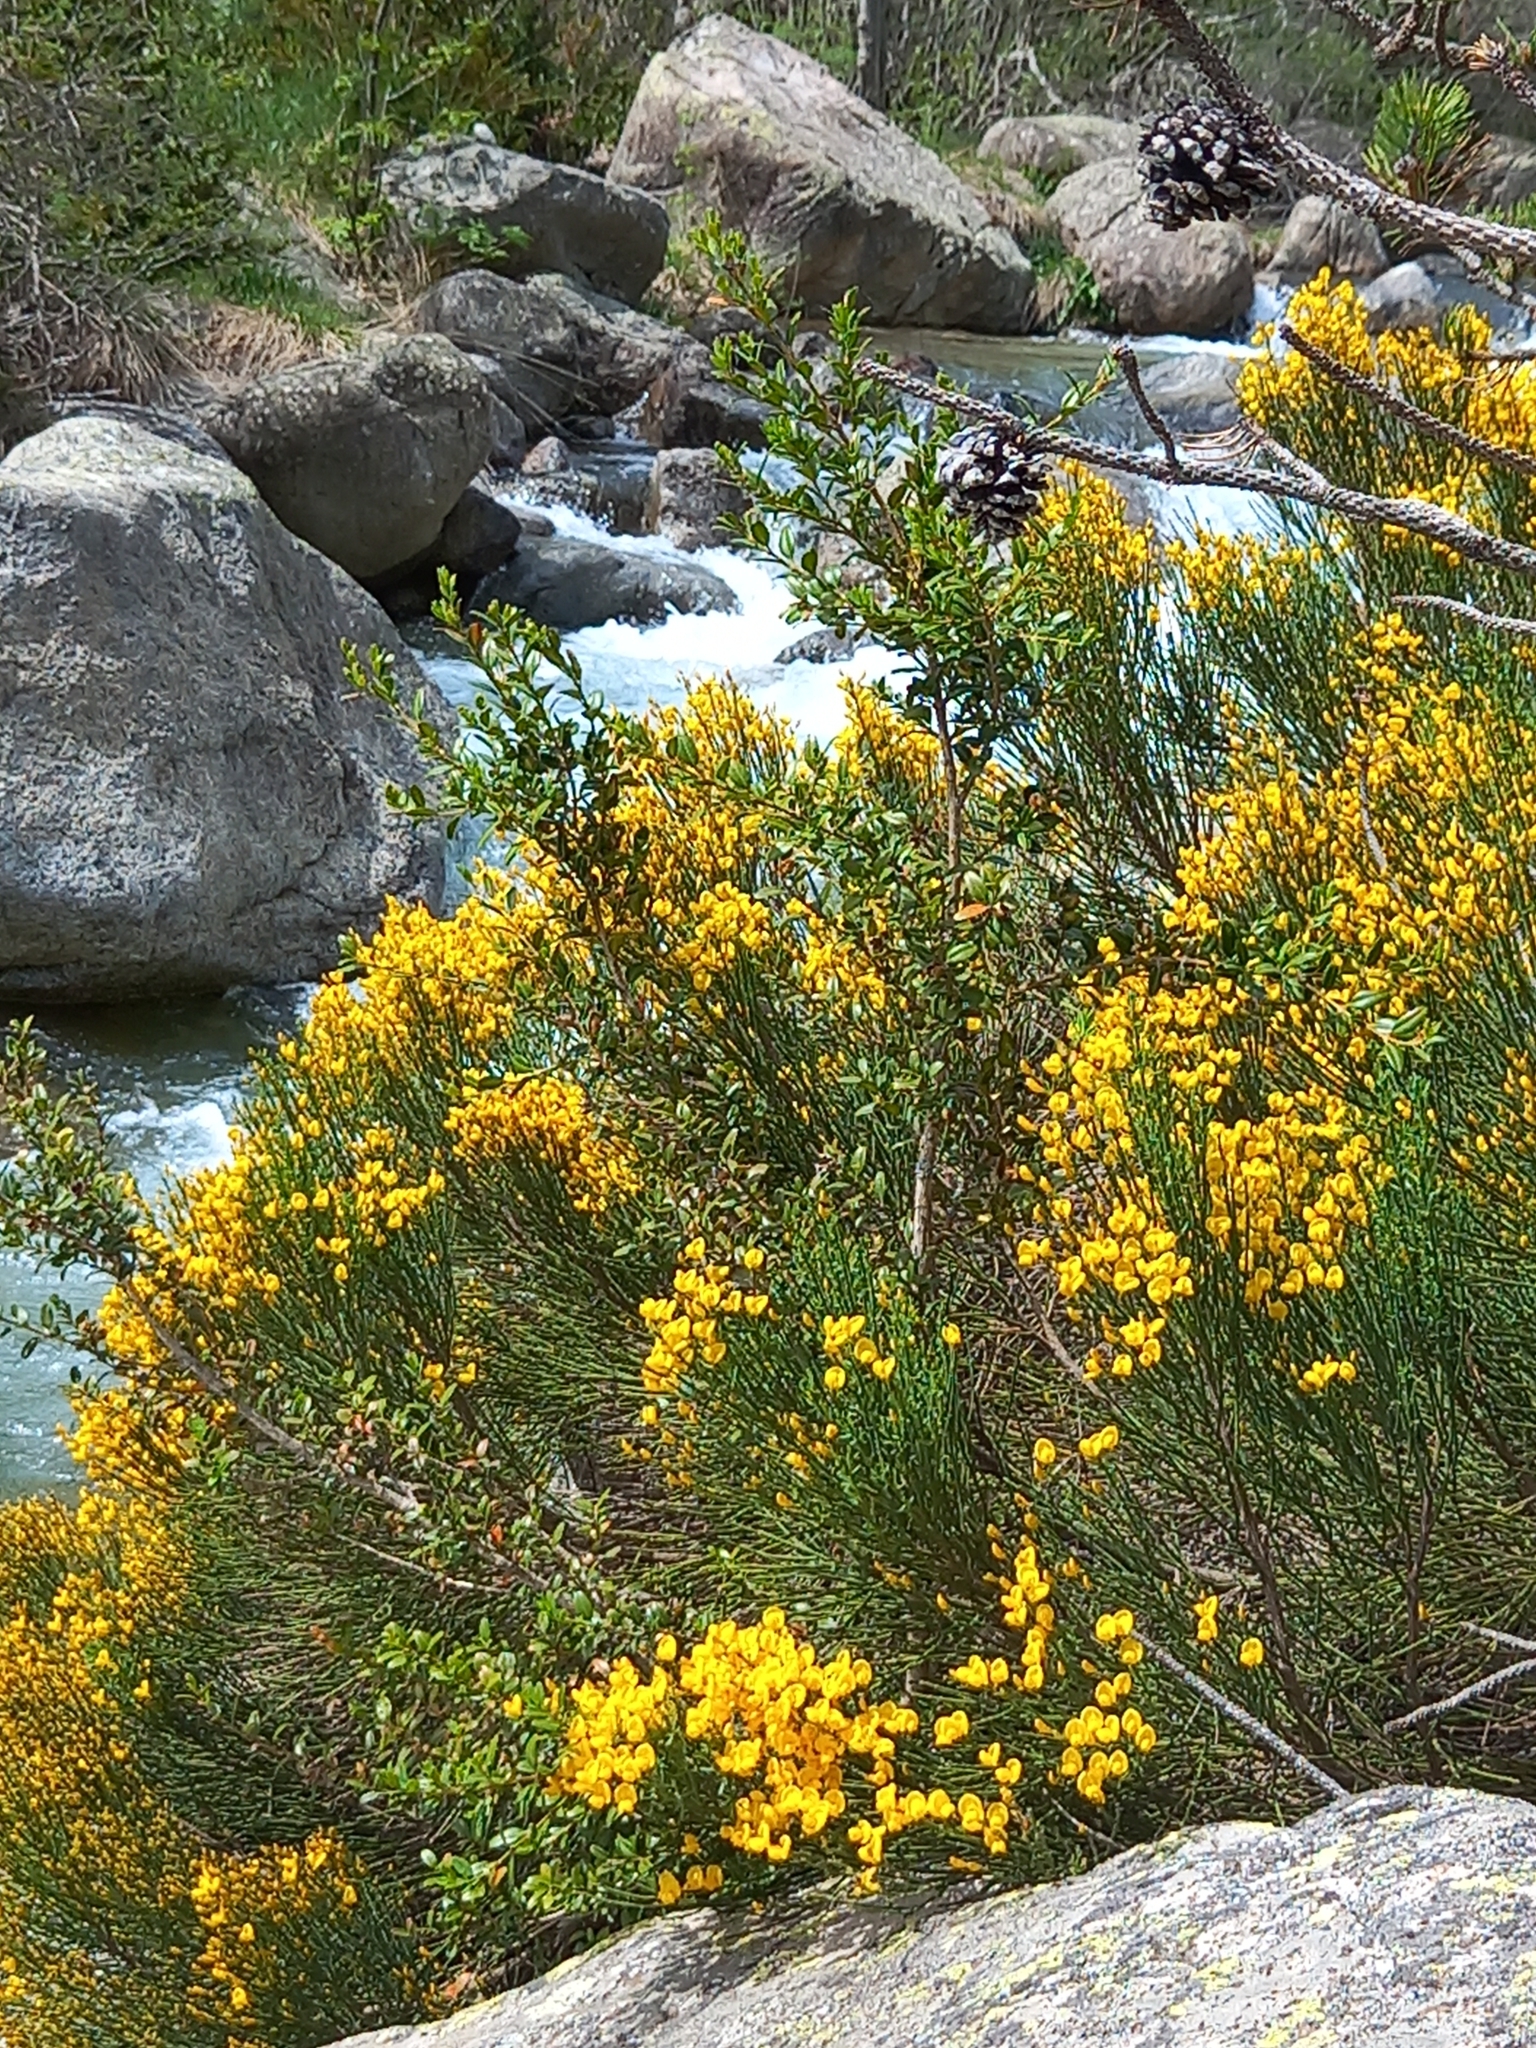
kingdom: Plantae
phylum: Tracheophyta
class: Magnoliopsida
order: Fabales
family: Fabaceae
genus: Cytisus
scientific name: Cytisus oromediterraneus
